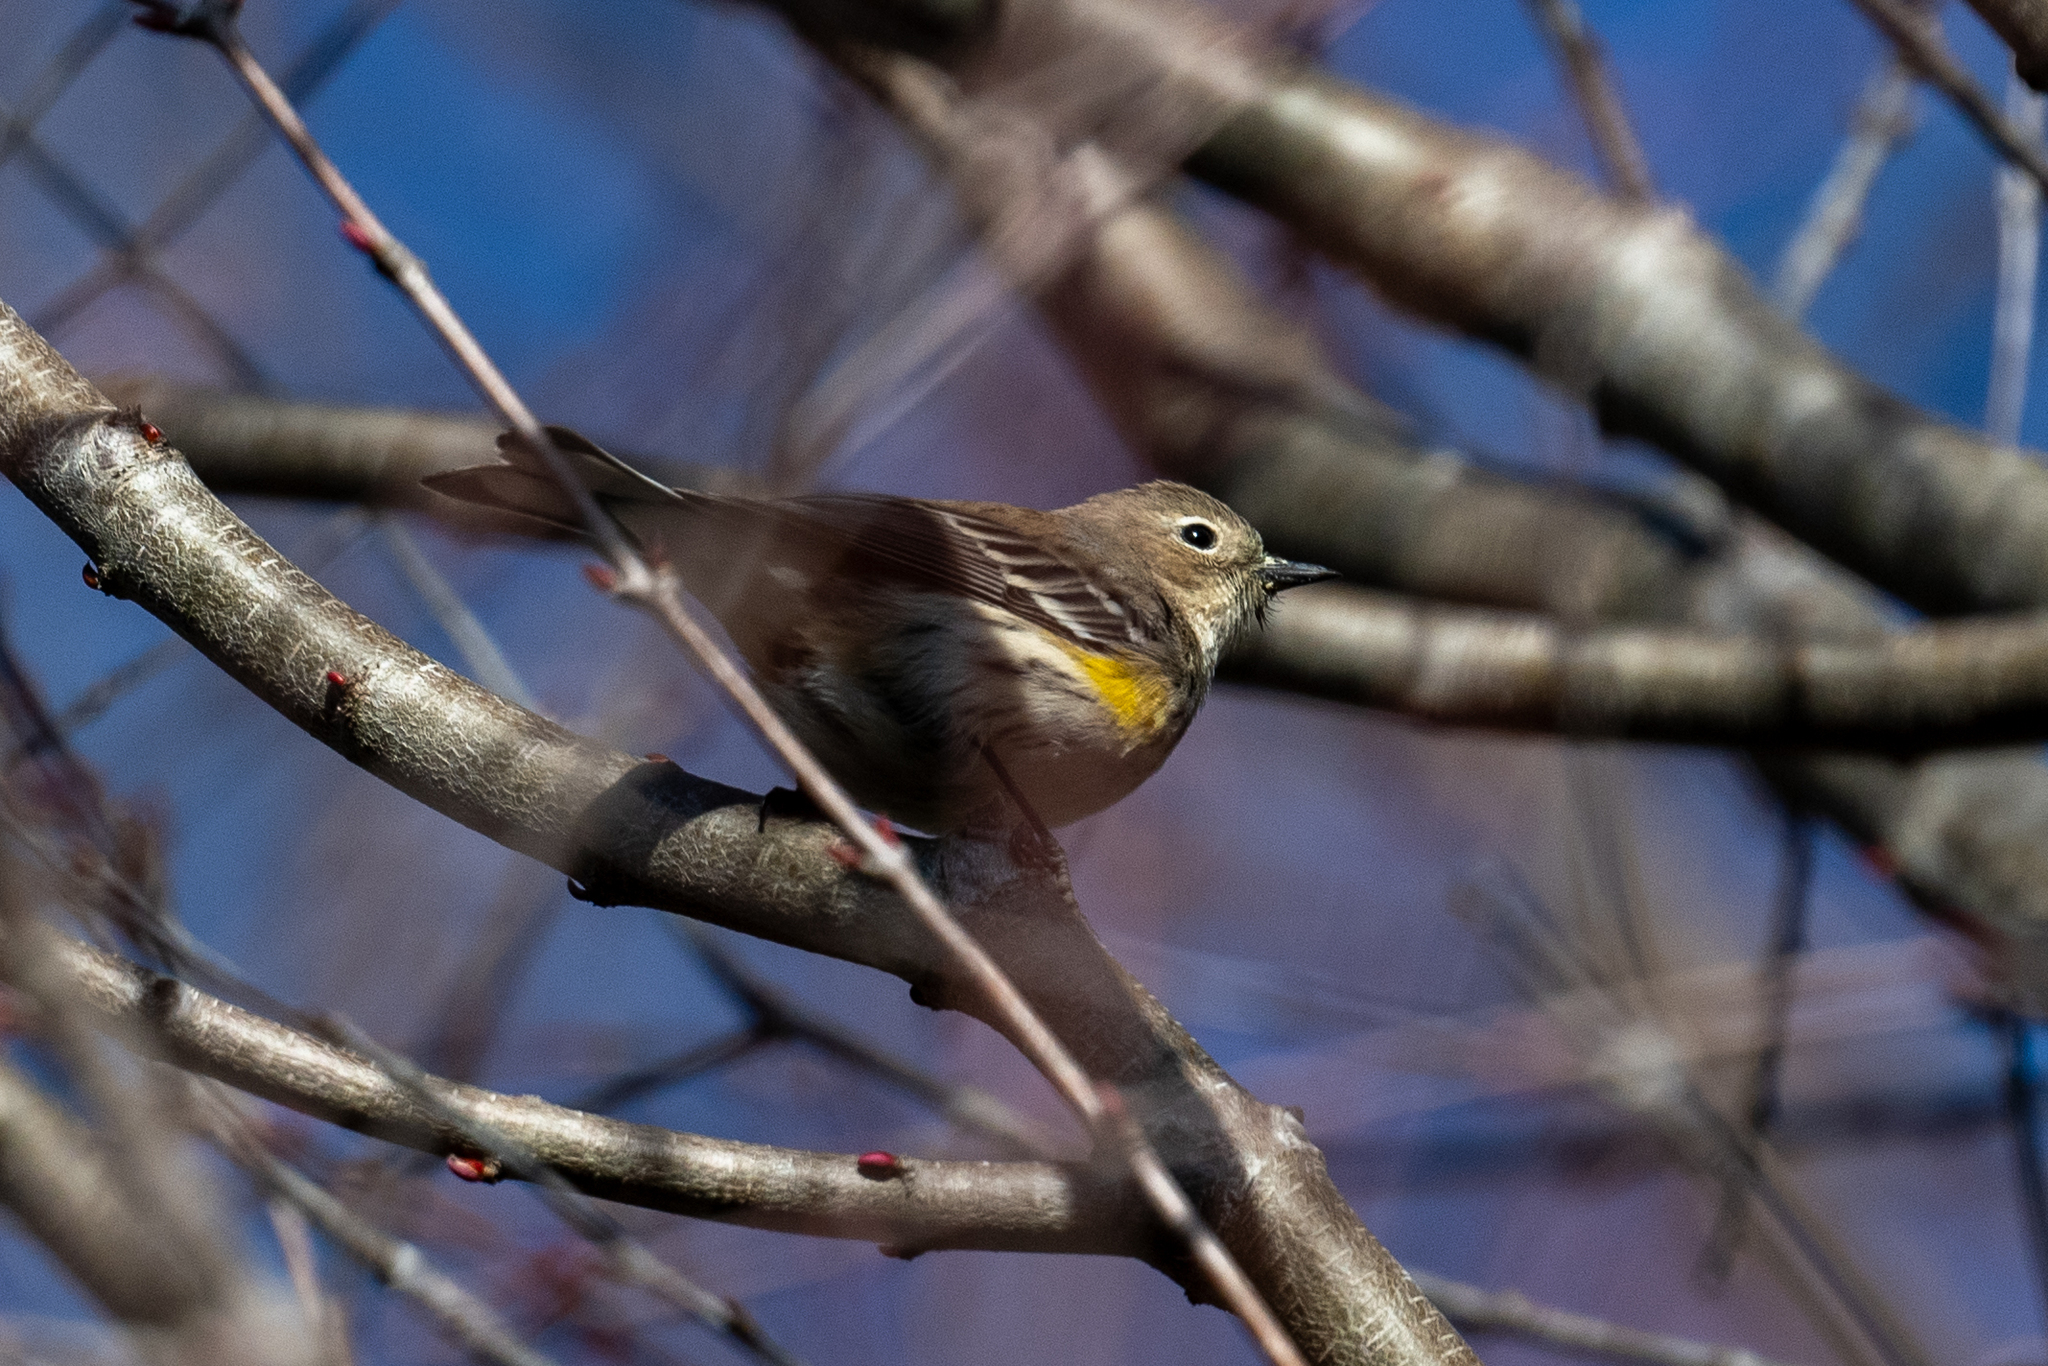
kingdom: Animalia
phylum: Chordata
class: Aves
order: Passeriformes
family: Parulidae
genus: Setophaga
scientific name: Setophaga coronata
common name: Myrtle warbler
